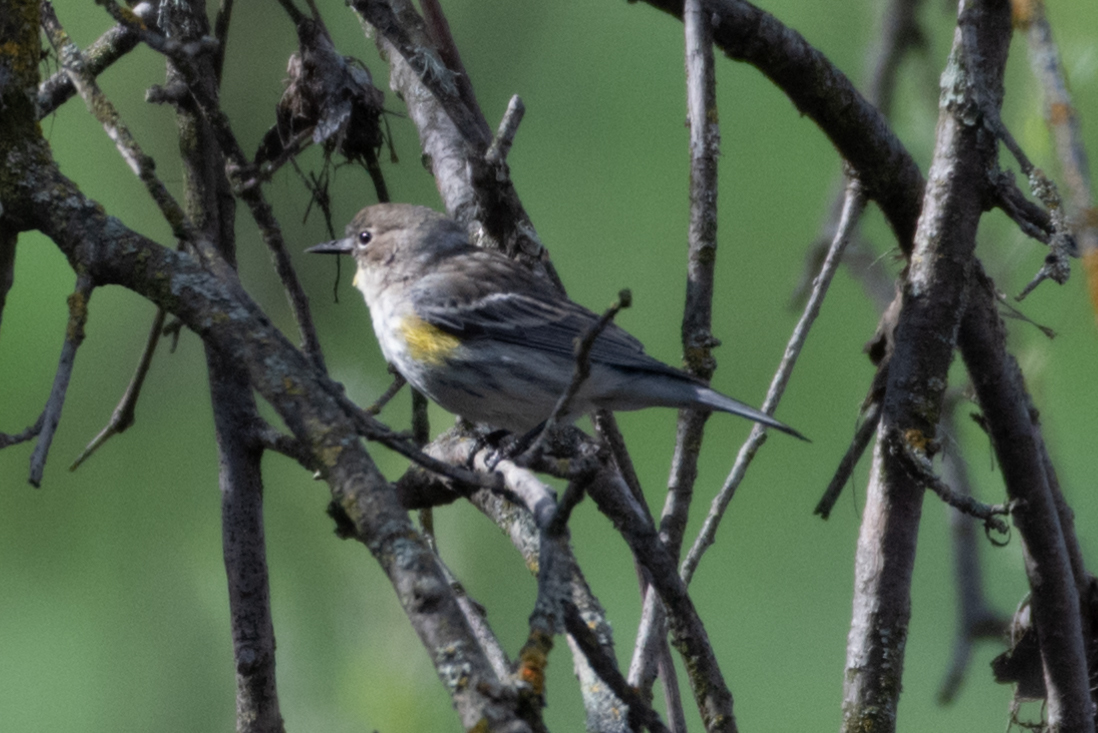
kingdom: Animalia
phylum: Chordata
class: Aves
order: Passeriformes
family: Parulidae
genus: Setophaga
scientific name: Setophaga coronata
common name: Myrtle warbler
